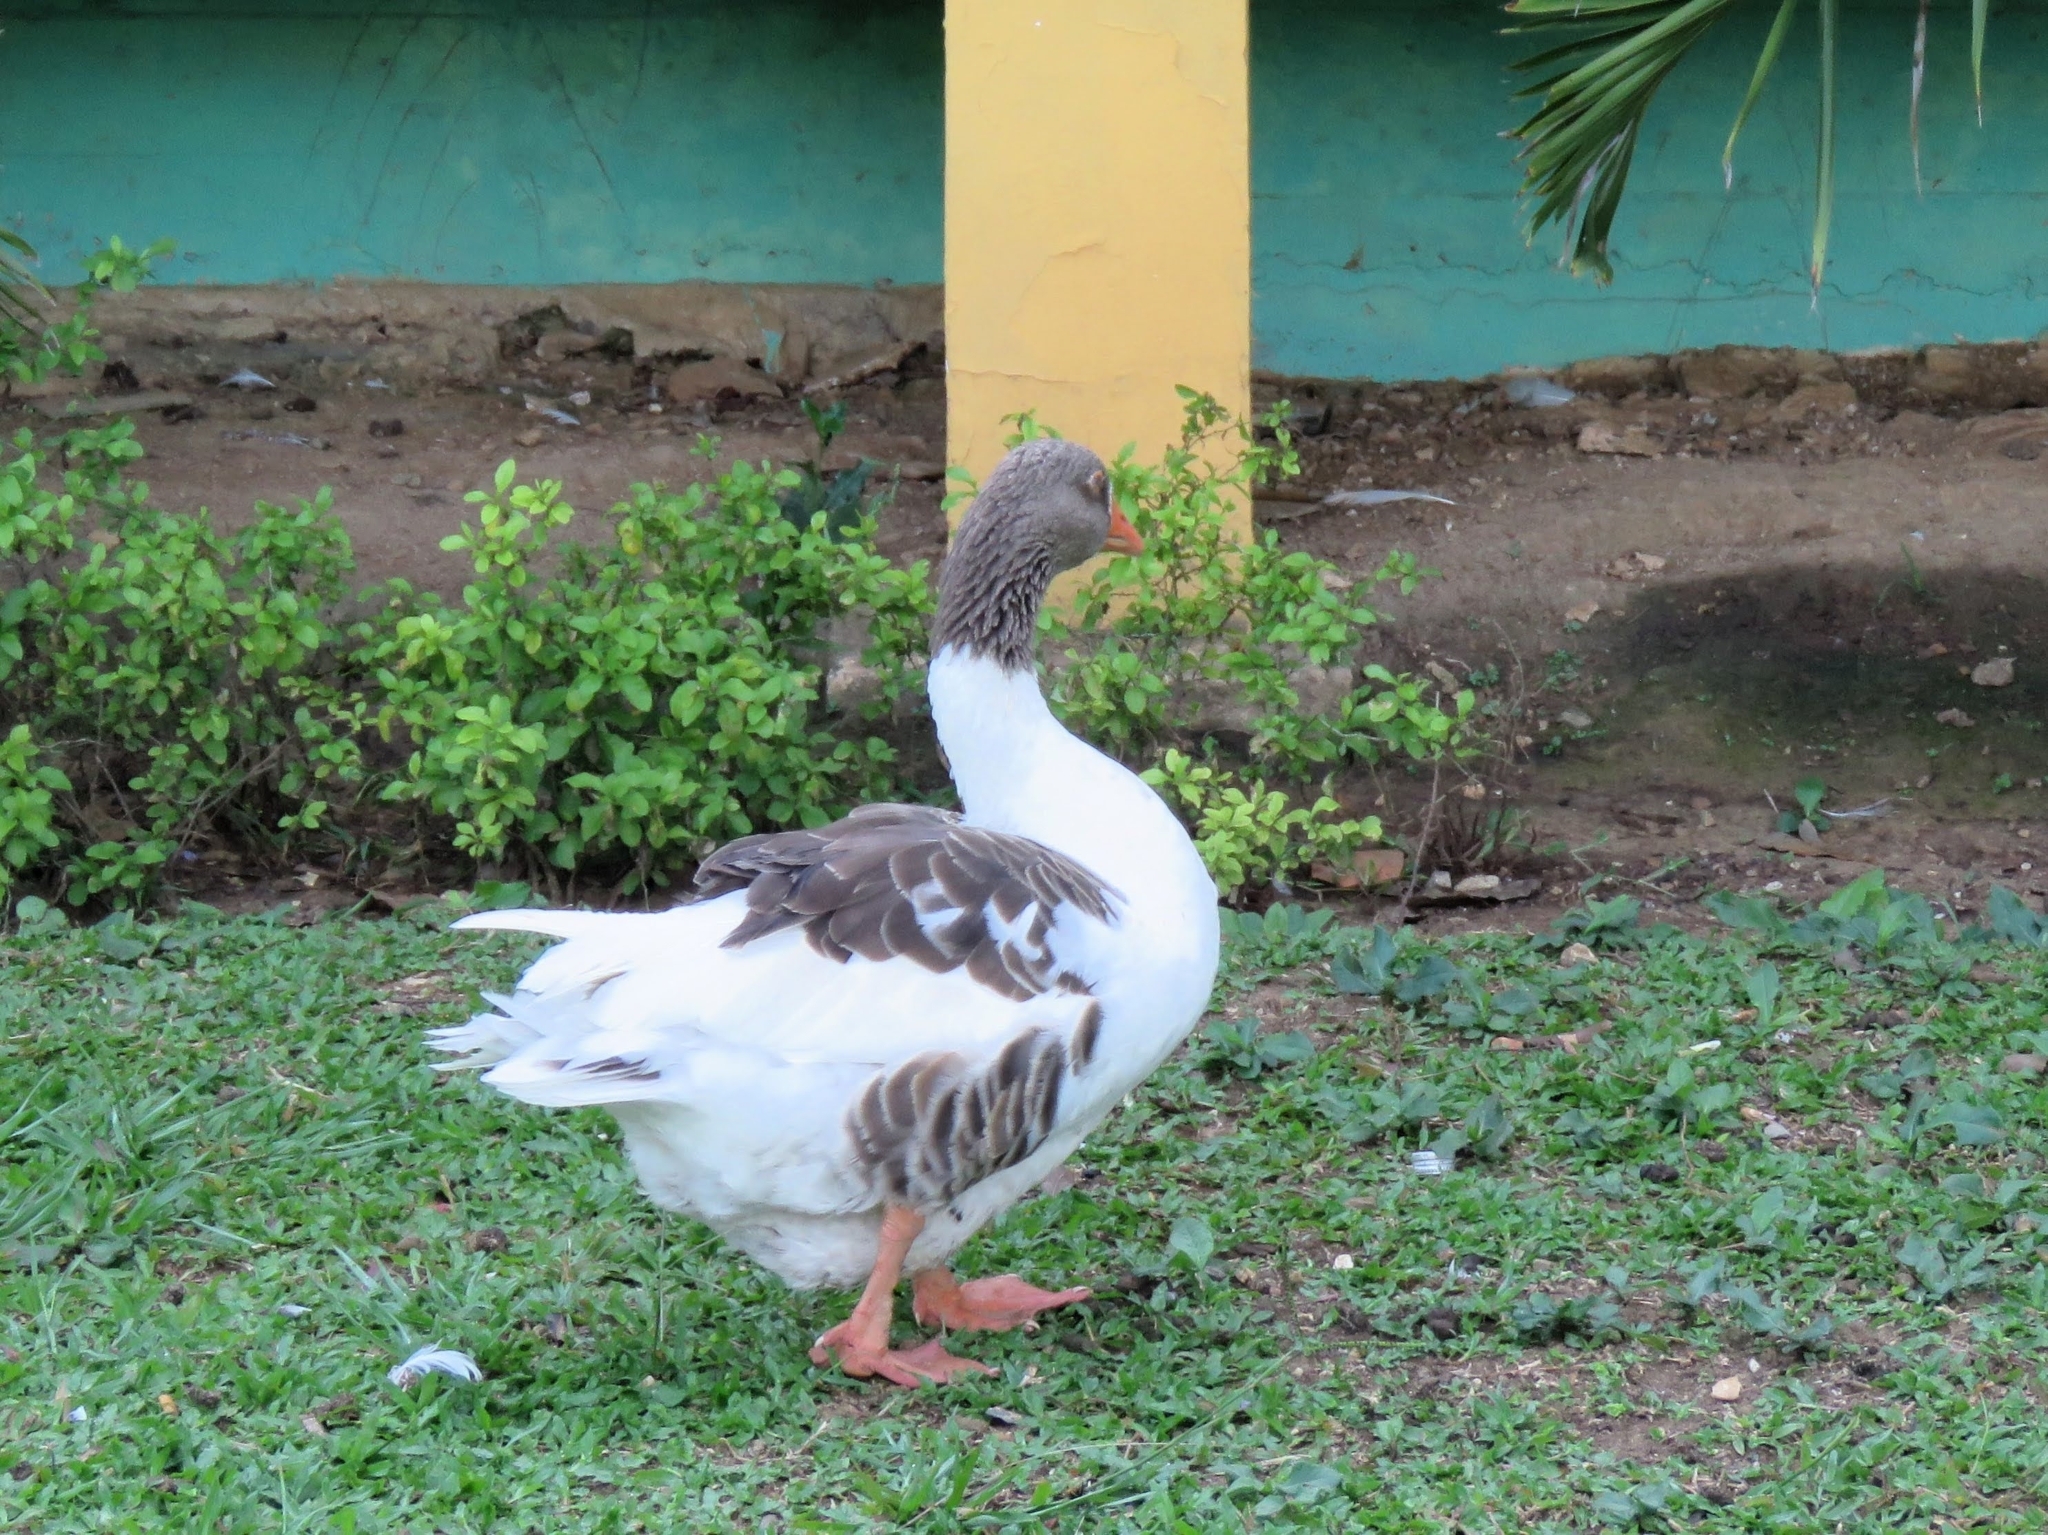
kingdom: Animalia
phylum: Chordata
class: Aves
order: Anseriformes
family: Anatidae
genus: Anser
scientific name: Anser anser
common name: Greylag goose
